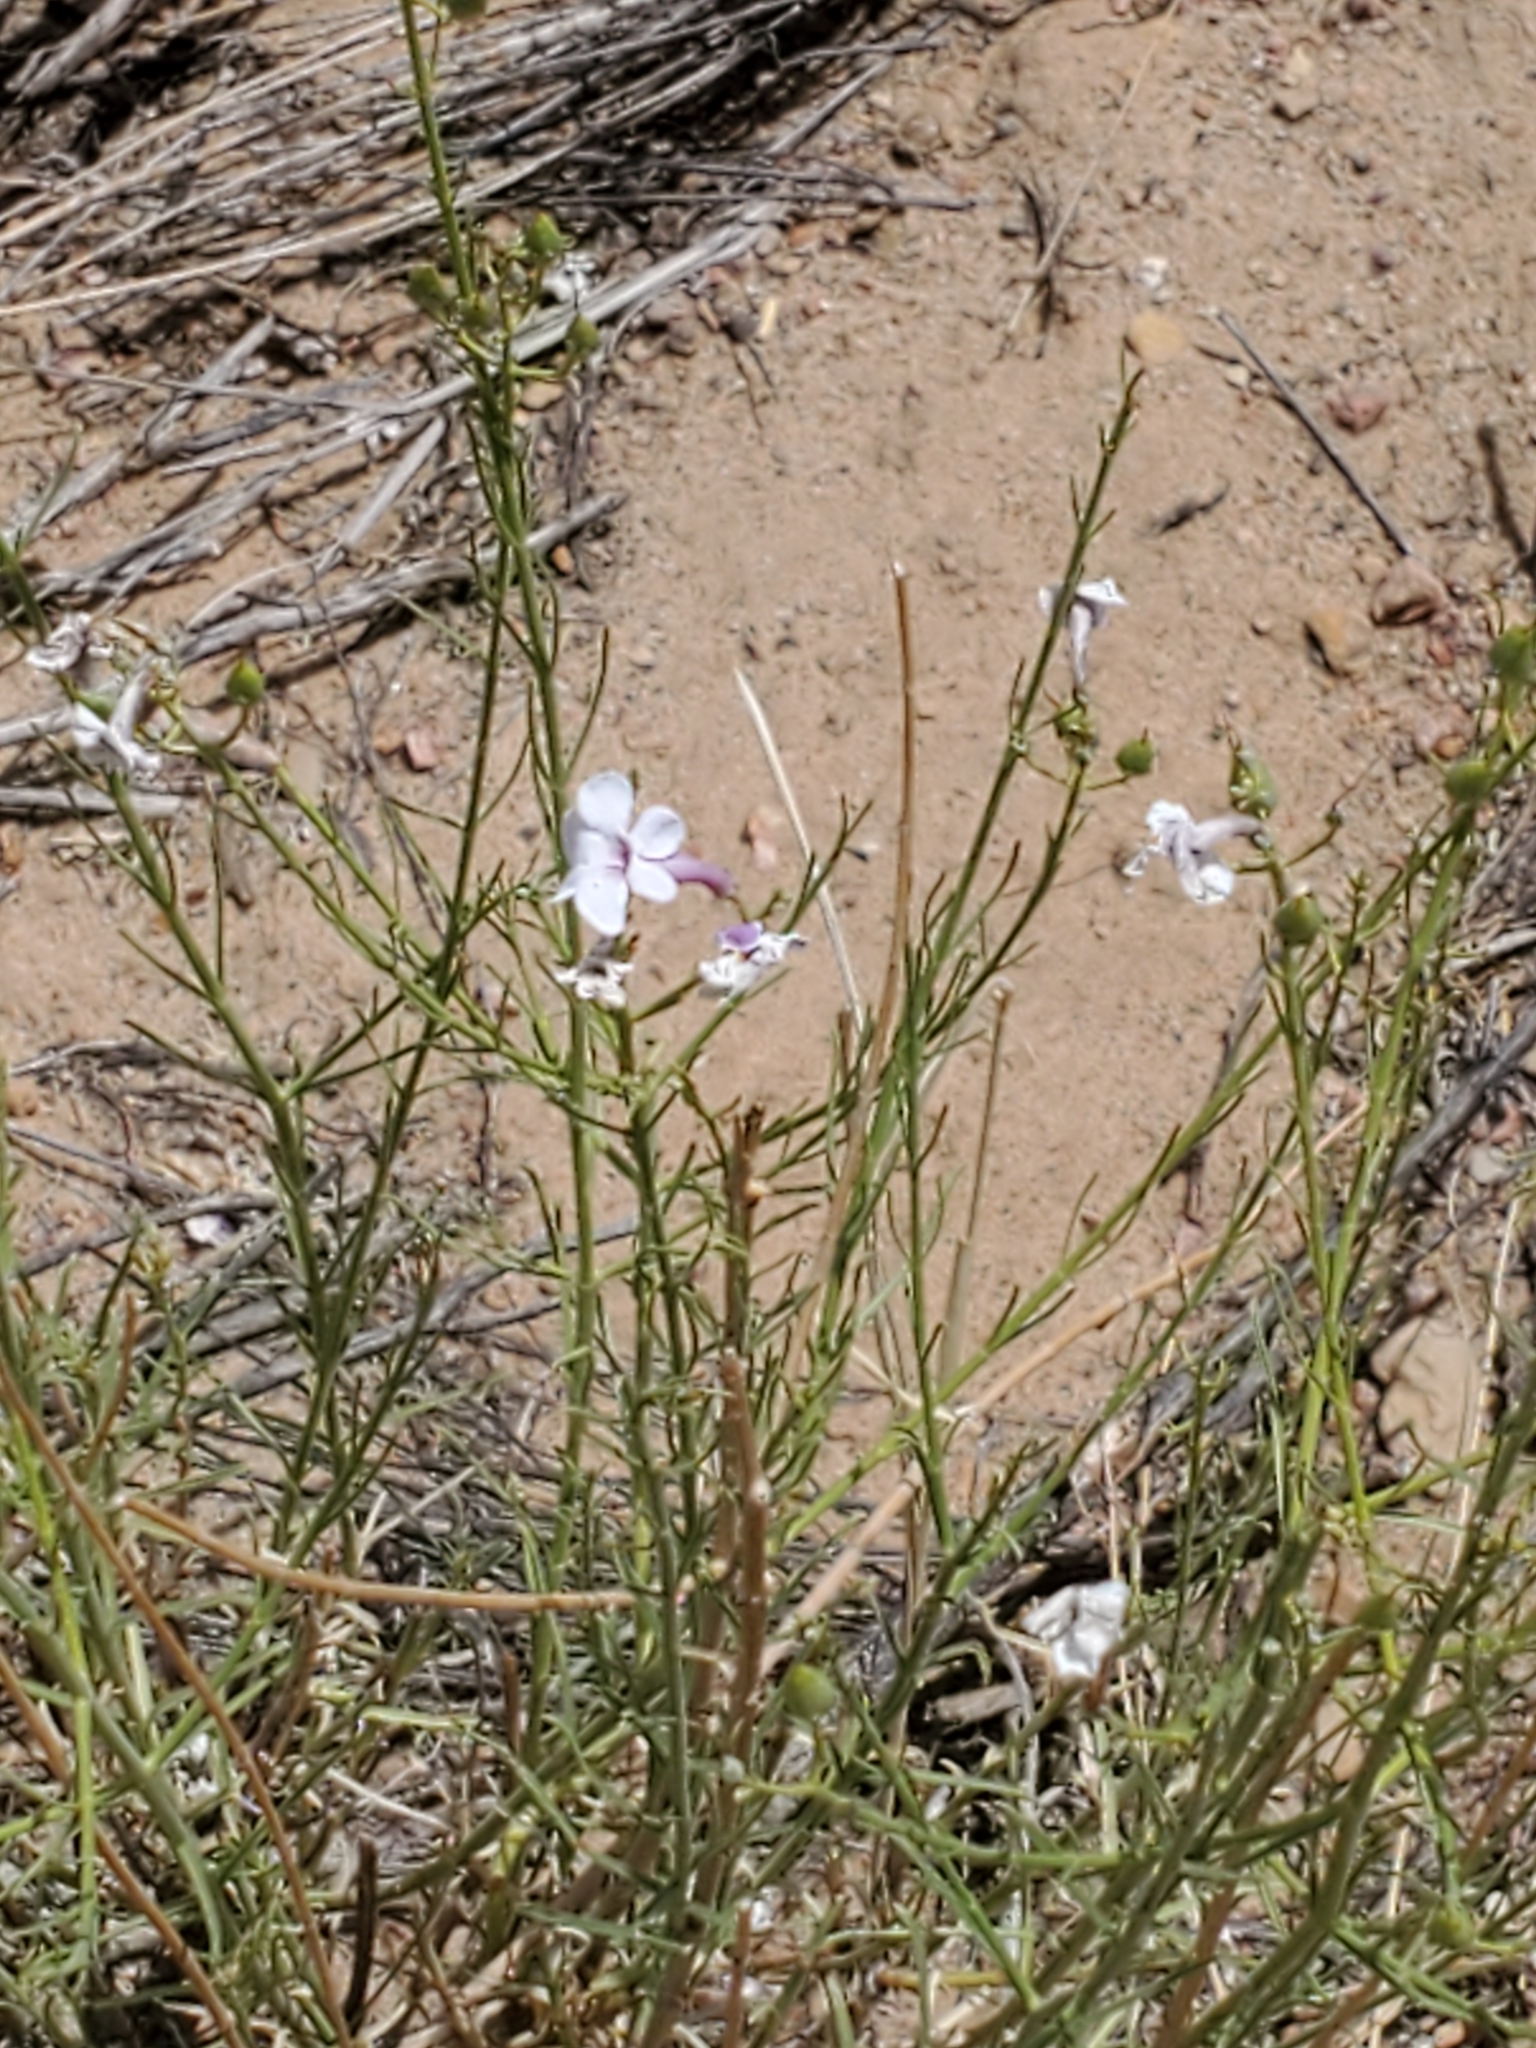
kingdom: Plantae
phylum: Tracheophyta
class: Magnoliopsida
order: Lamiales
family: Plantaginaceae
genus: Penstemon
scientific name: Penstemon ambiguus
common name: Bush penstemon
